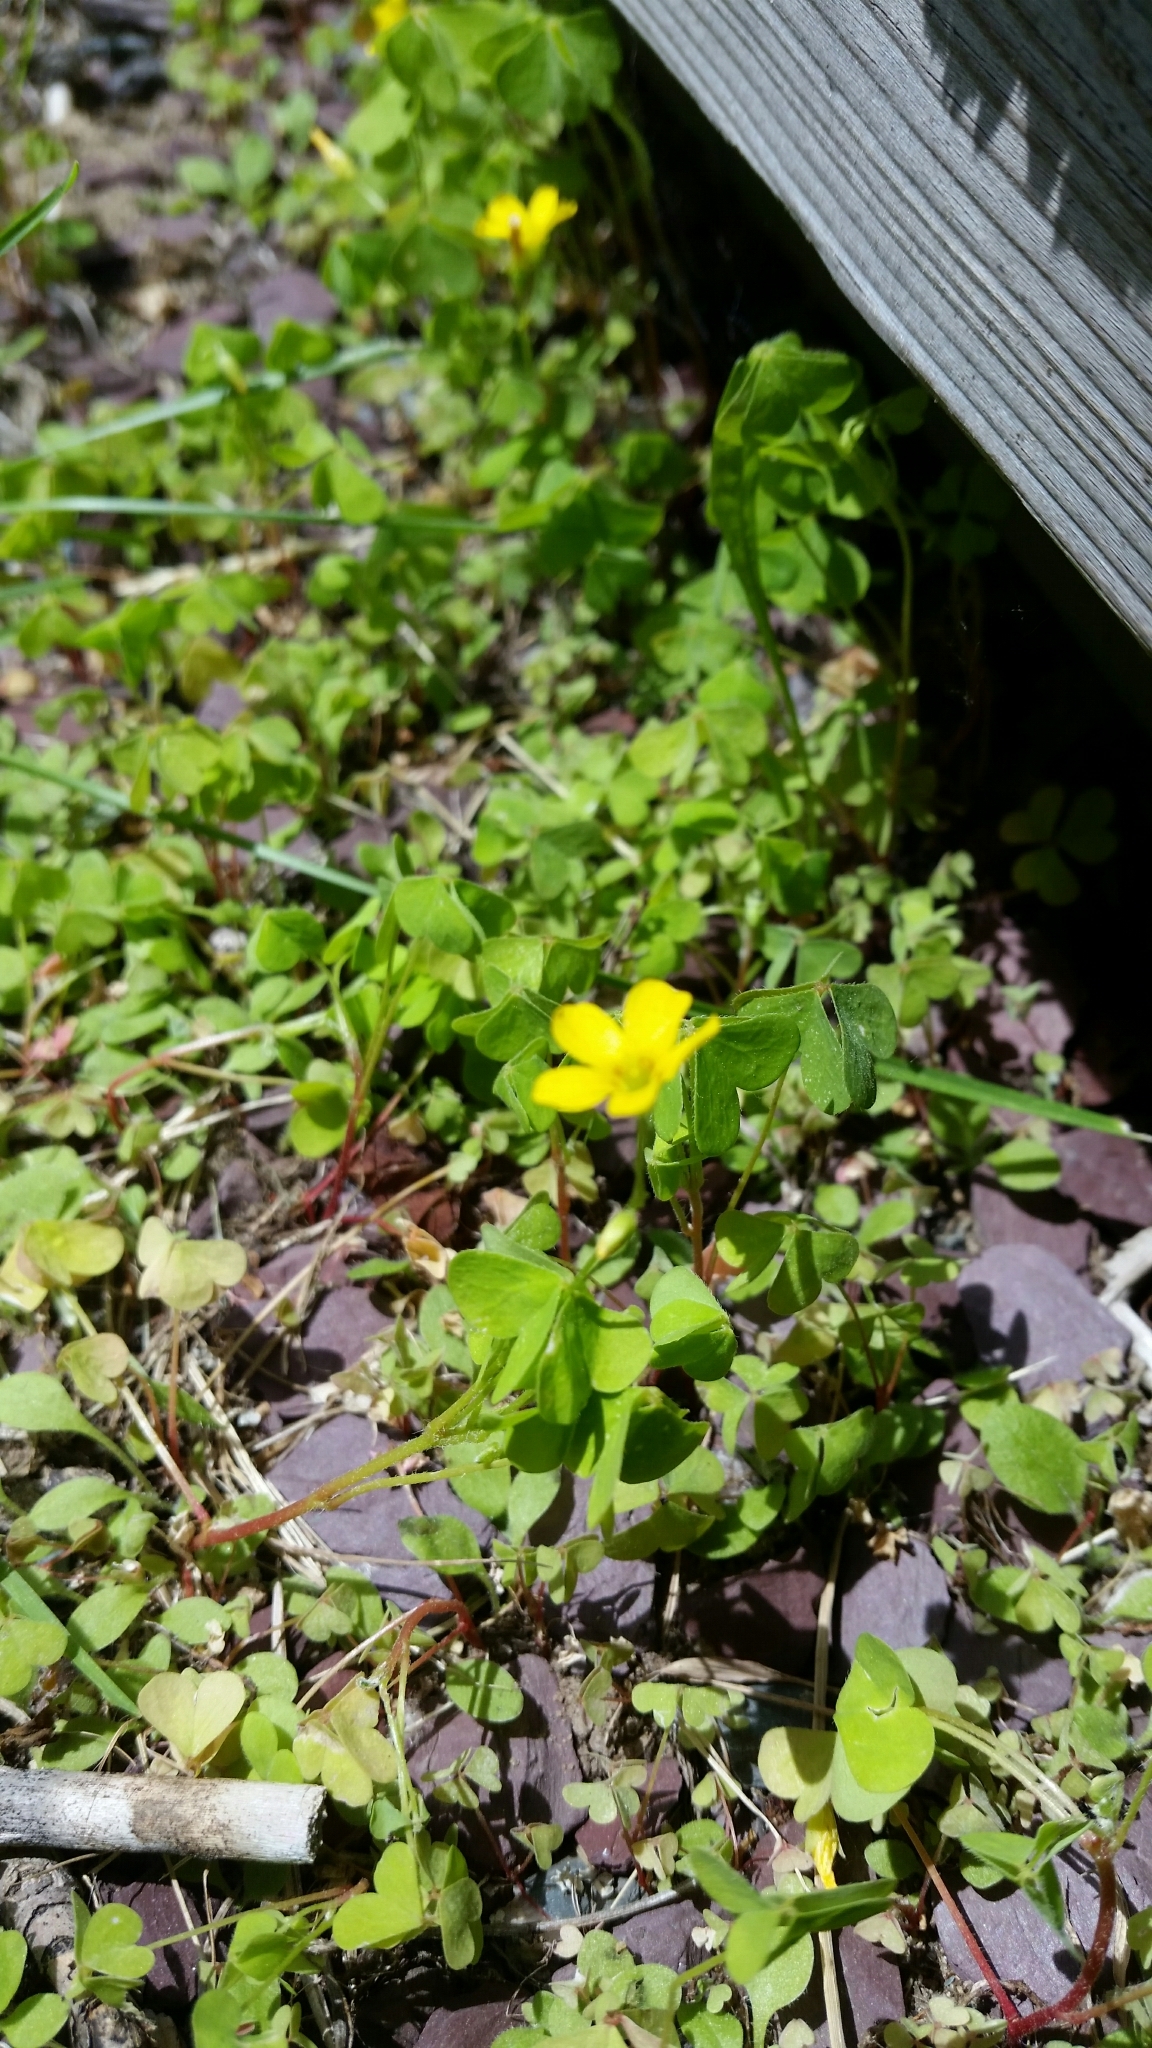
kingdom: Plantae
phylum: Tracheophyta
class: Magnoliopsida
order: Oxalidales
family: Oxalidaceae
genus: Oxalis
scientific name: Oxalis stricta
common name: Upright yellow-sorrel
